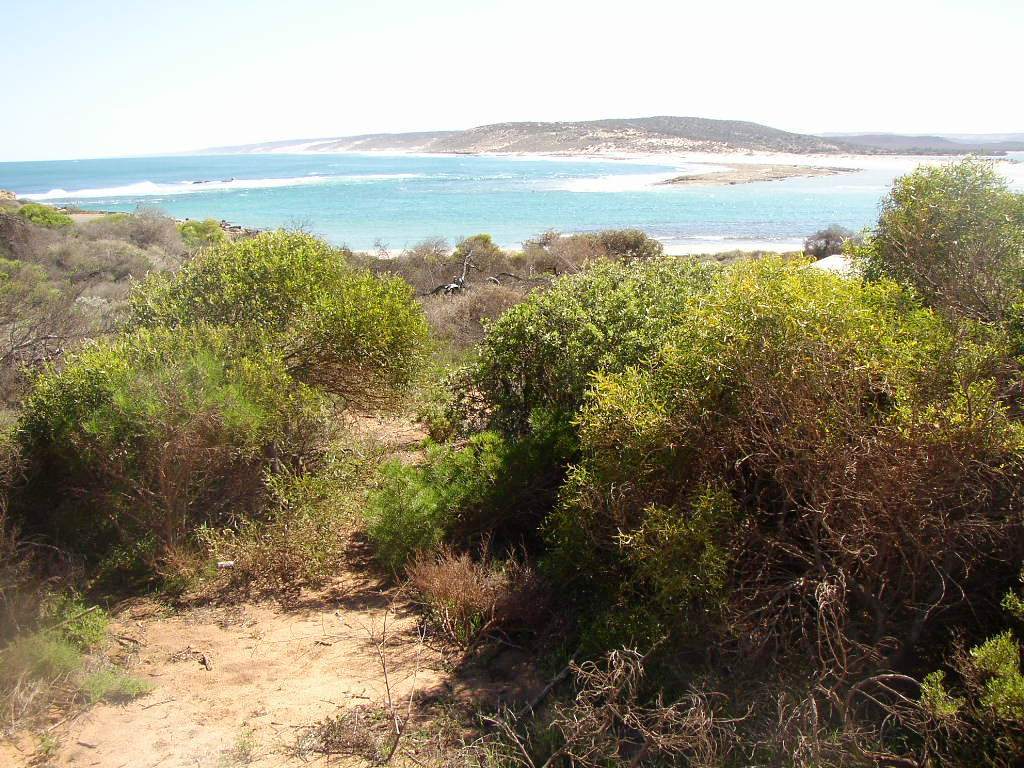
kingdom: Plantae
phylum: Tracheophyta
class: Magnoliopsida
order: Lamiales
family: Scrophulariaceae
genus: Myoporum
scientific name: Myoporum montanum
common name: Waterbush
